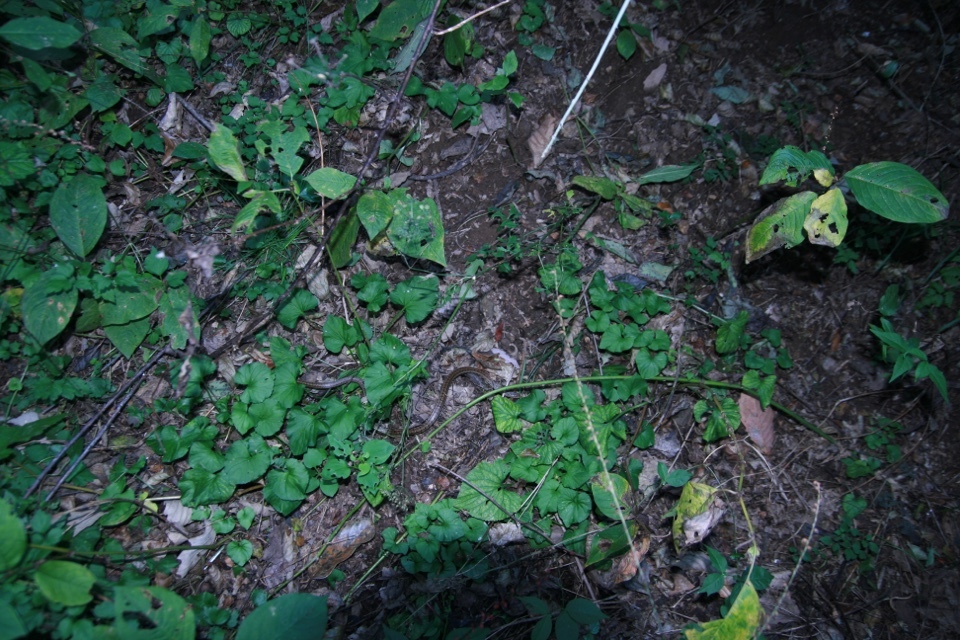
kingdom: Animalia
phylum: Chordata
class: Squamata
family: Colubridae
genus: Elaphe
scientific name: Elaphe dione
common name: Dione ratsnake
